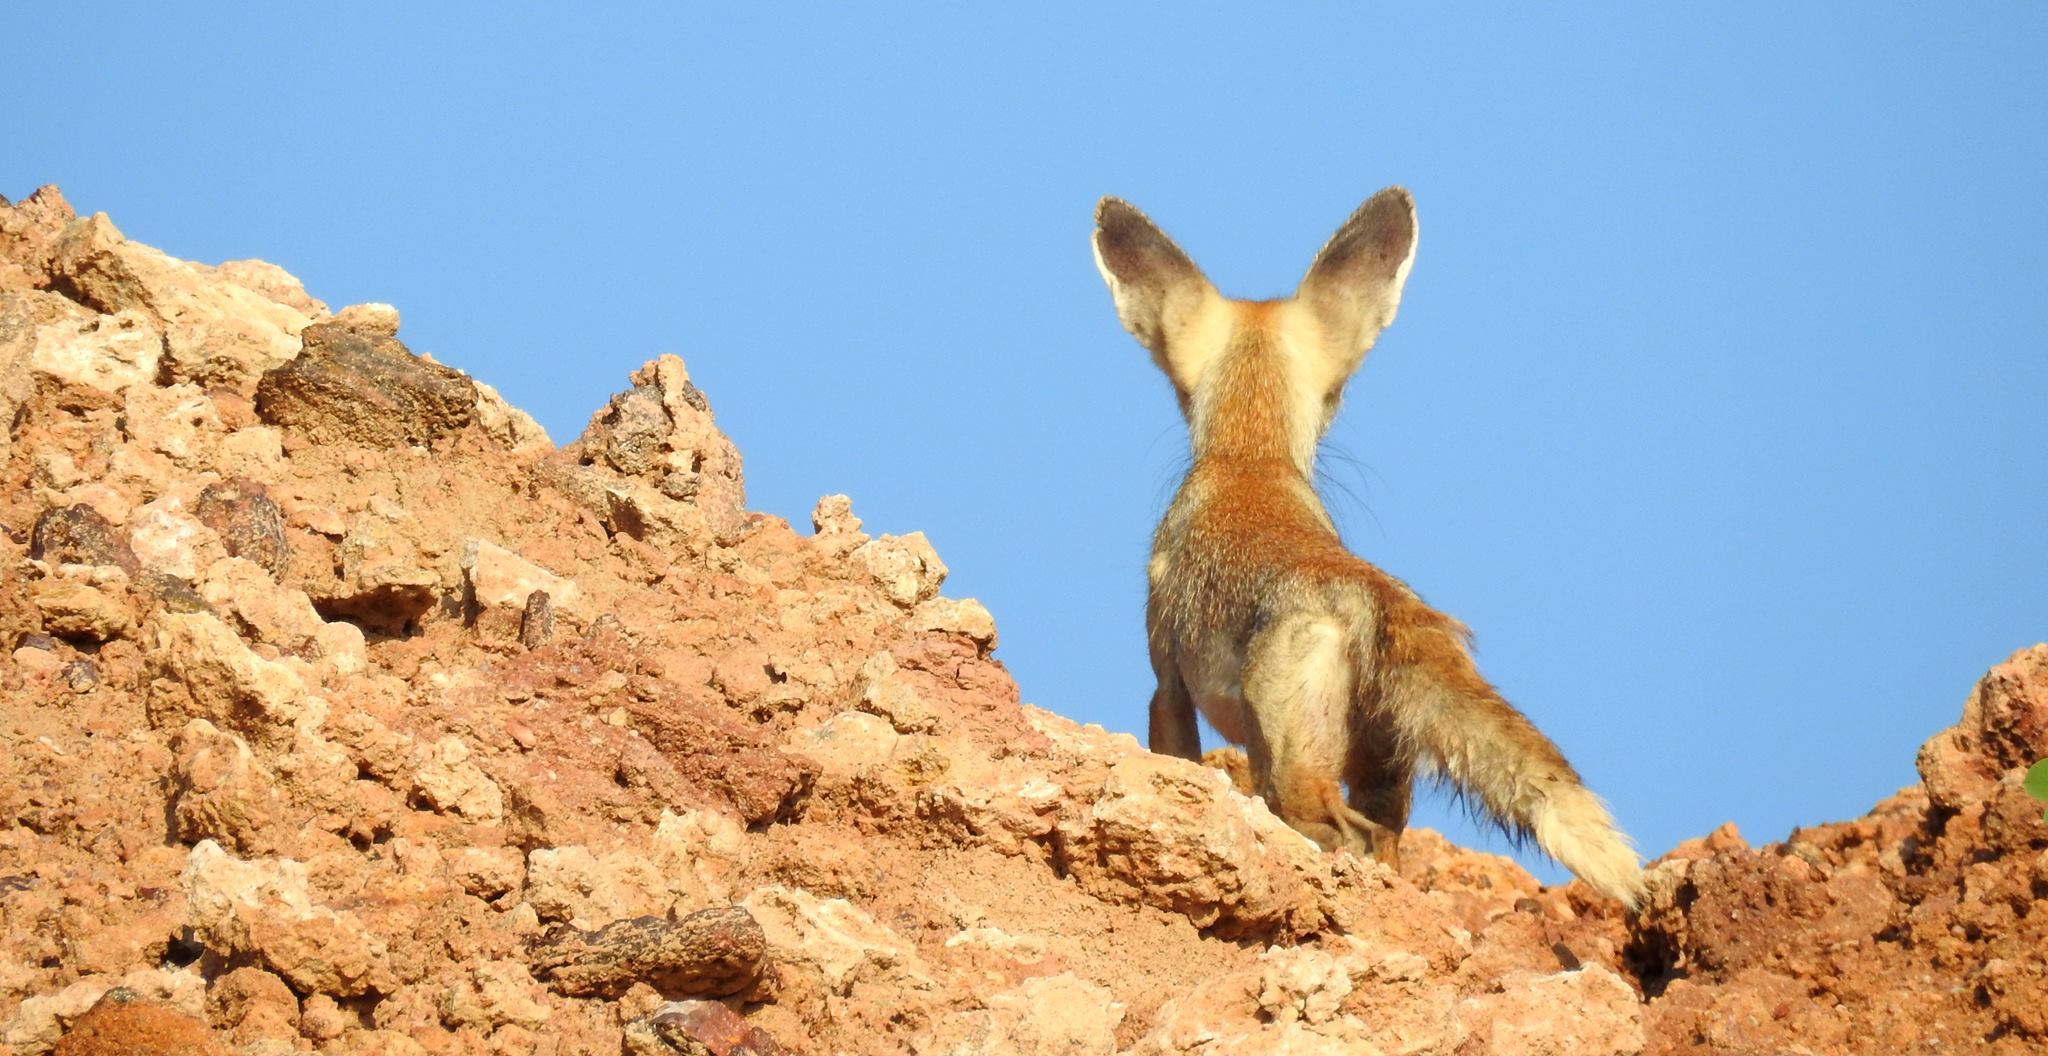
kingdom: Animalia
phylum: Chordata
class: Mammalia
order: Carnivora
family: Canidae
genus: Vulpes
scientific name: Vulpes vulpes
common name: Red fox
